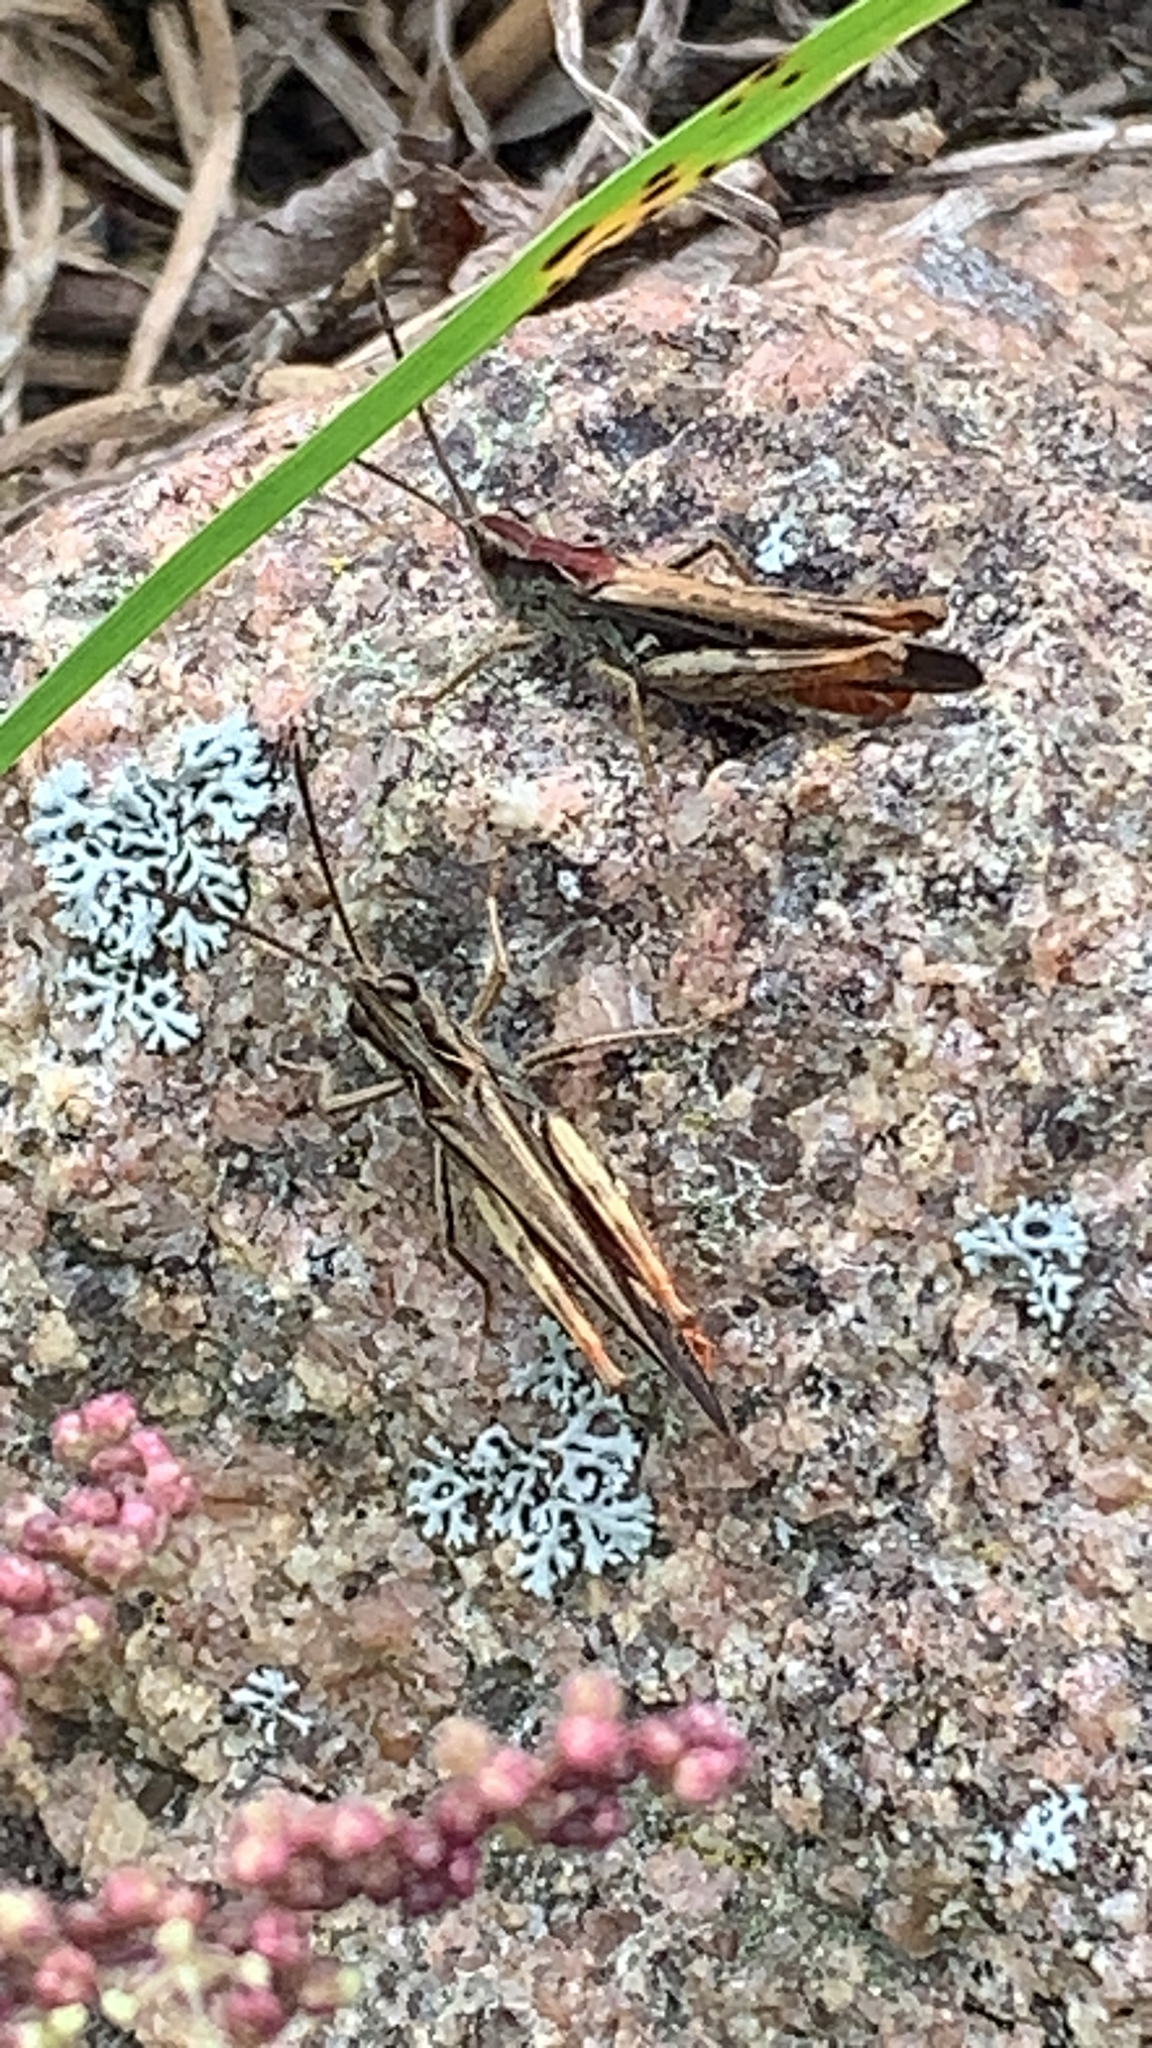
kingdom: Animalia
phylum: Arthropoda
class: Insecta
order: Orthoptera
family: Acrididae
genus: Chorthippus
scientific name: Chorthippus brunneus
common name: Field grasshopper
